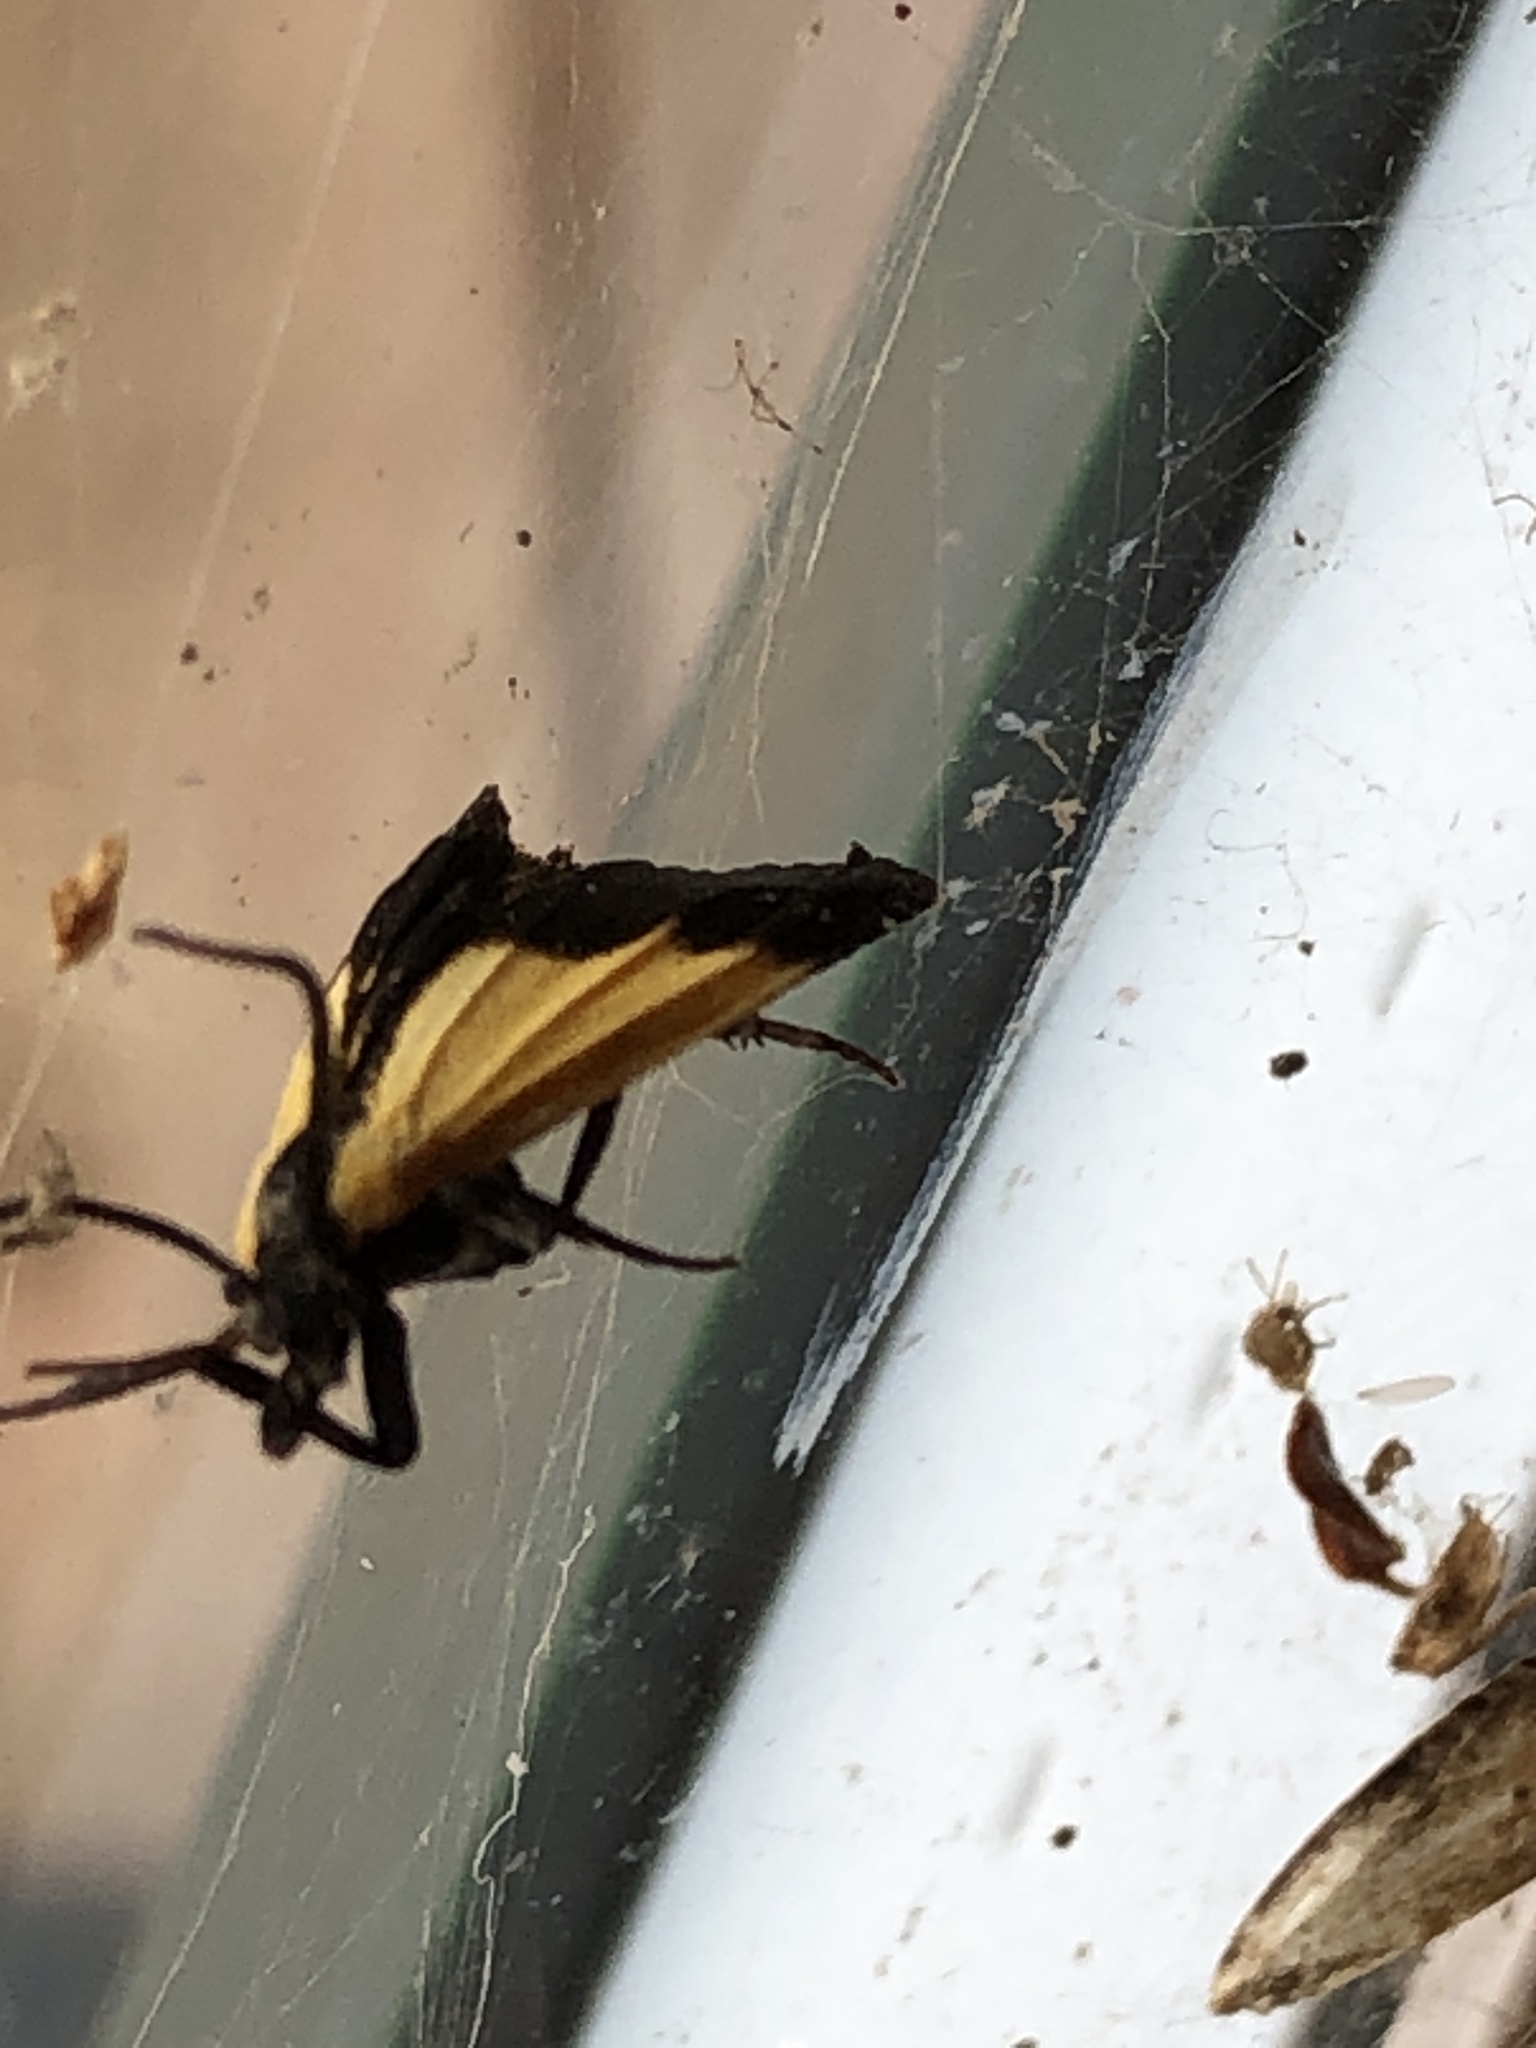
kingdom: Animalia
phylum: Arthropoda
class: Insecta
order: Lepidoptera
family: Erebidae
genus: Lycomorpha
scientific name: Lycomorpha pholus
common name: Black-and-yellow lichen moth
